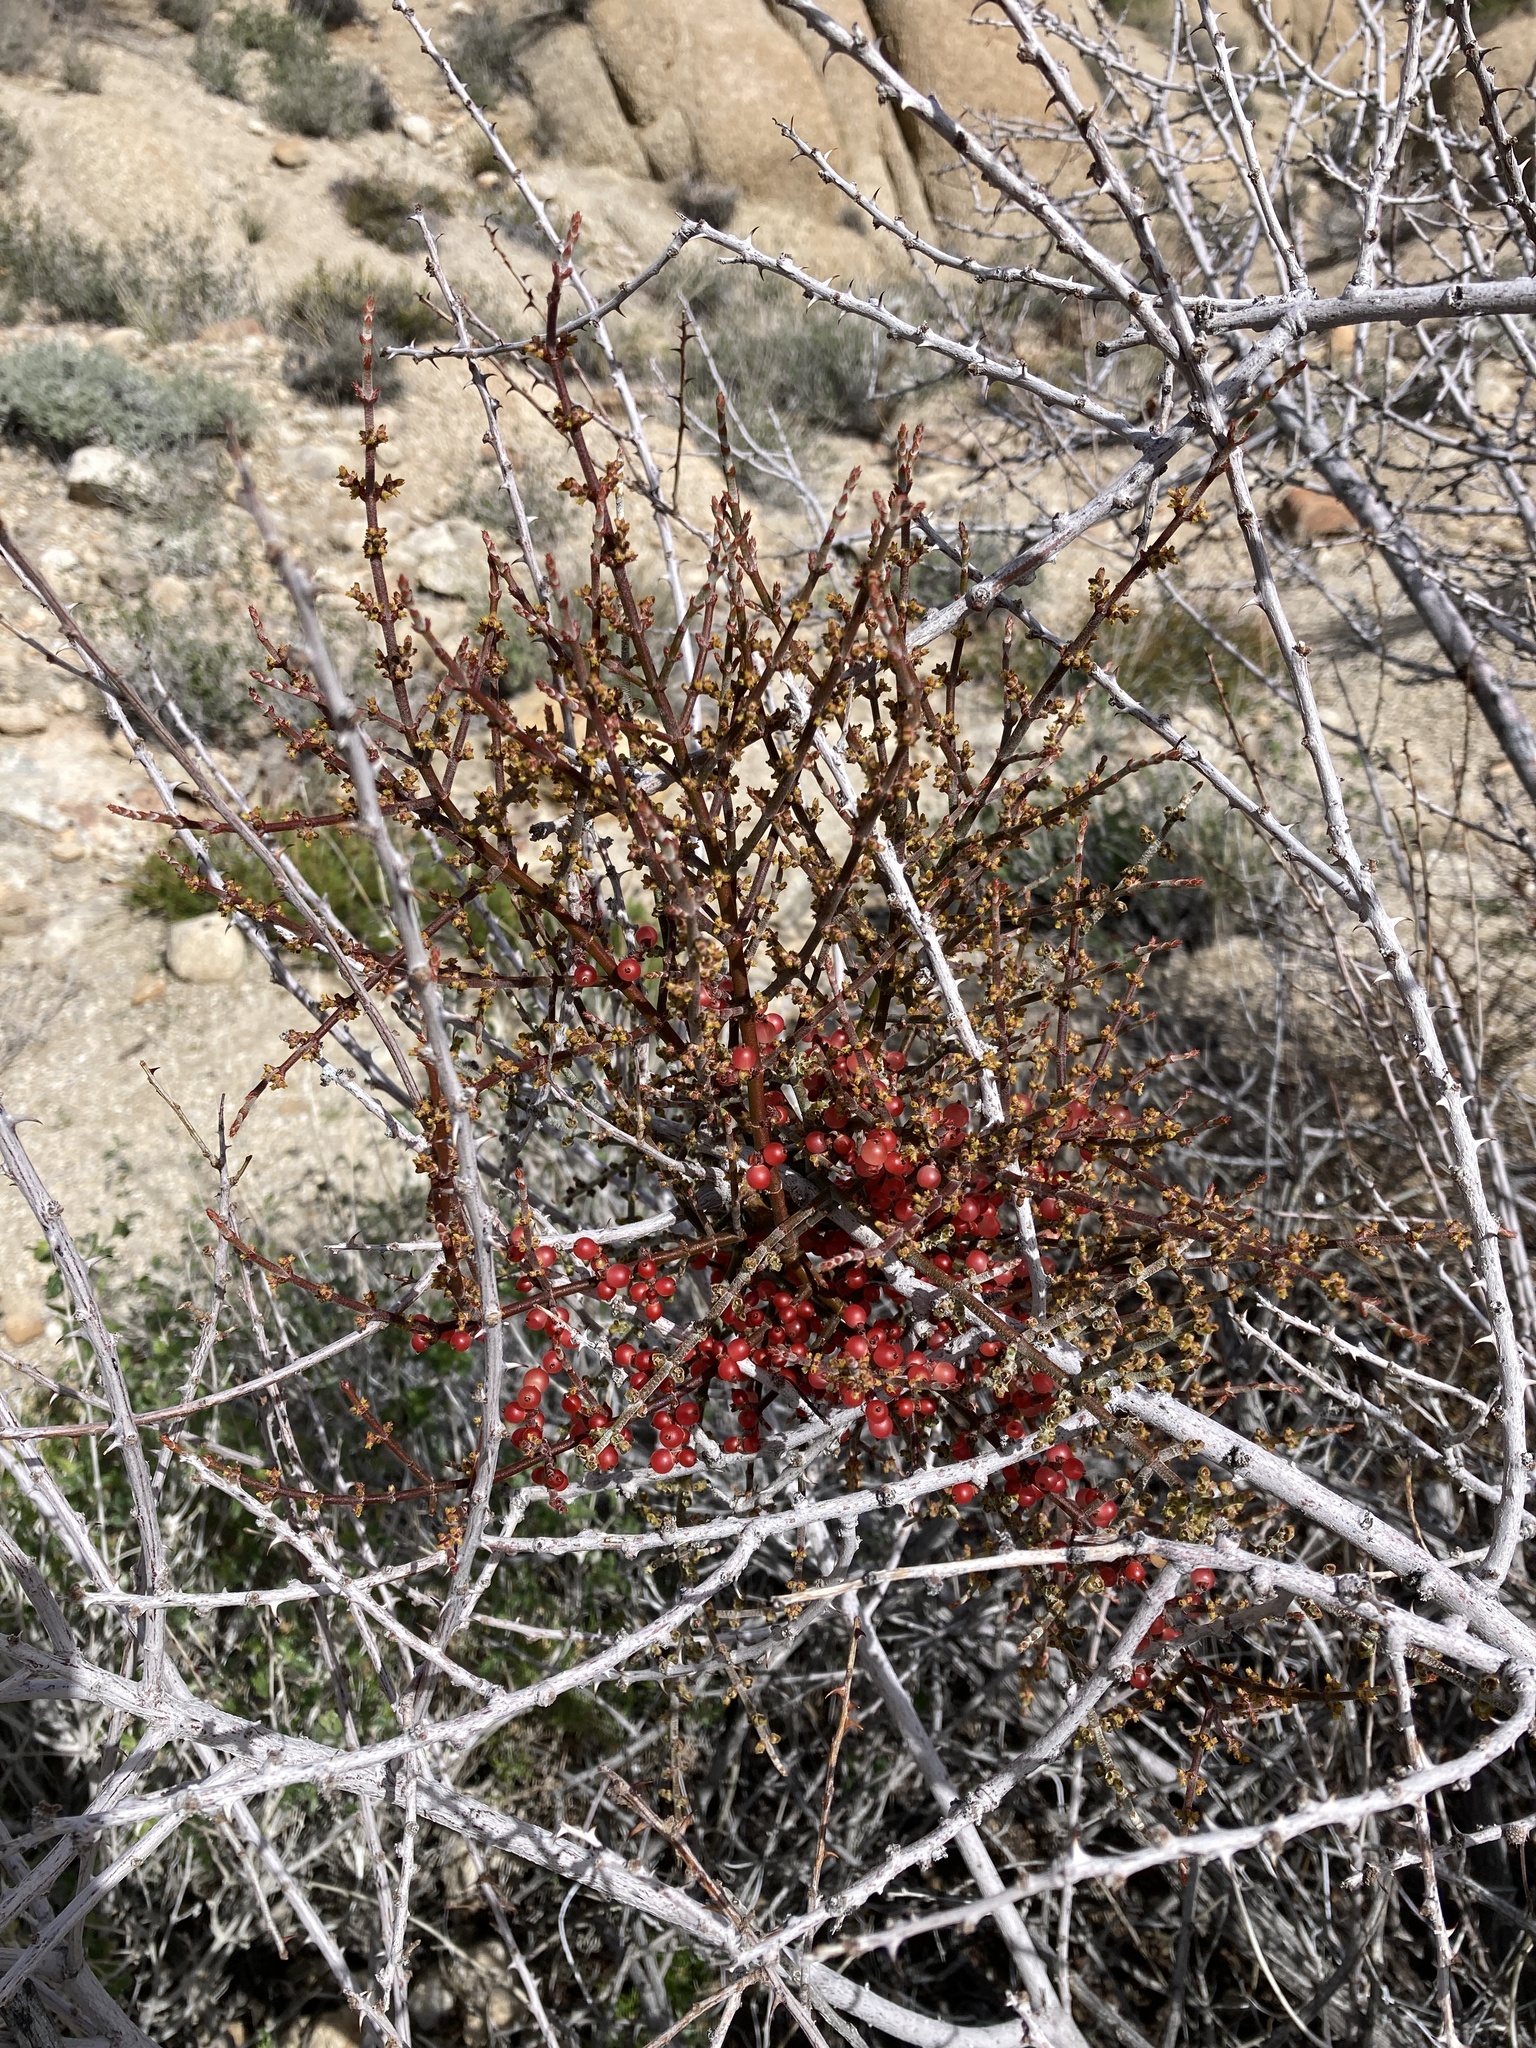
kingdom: Plantae
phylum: Tracheophyta
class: Magnoliopsida
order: Santalales
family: Viscaceae
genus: Phoradendron
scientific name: Phoradendron californicum
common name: Acacia mistletoe
